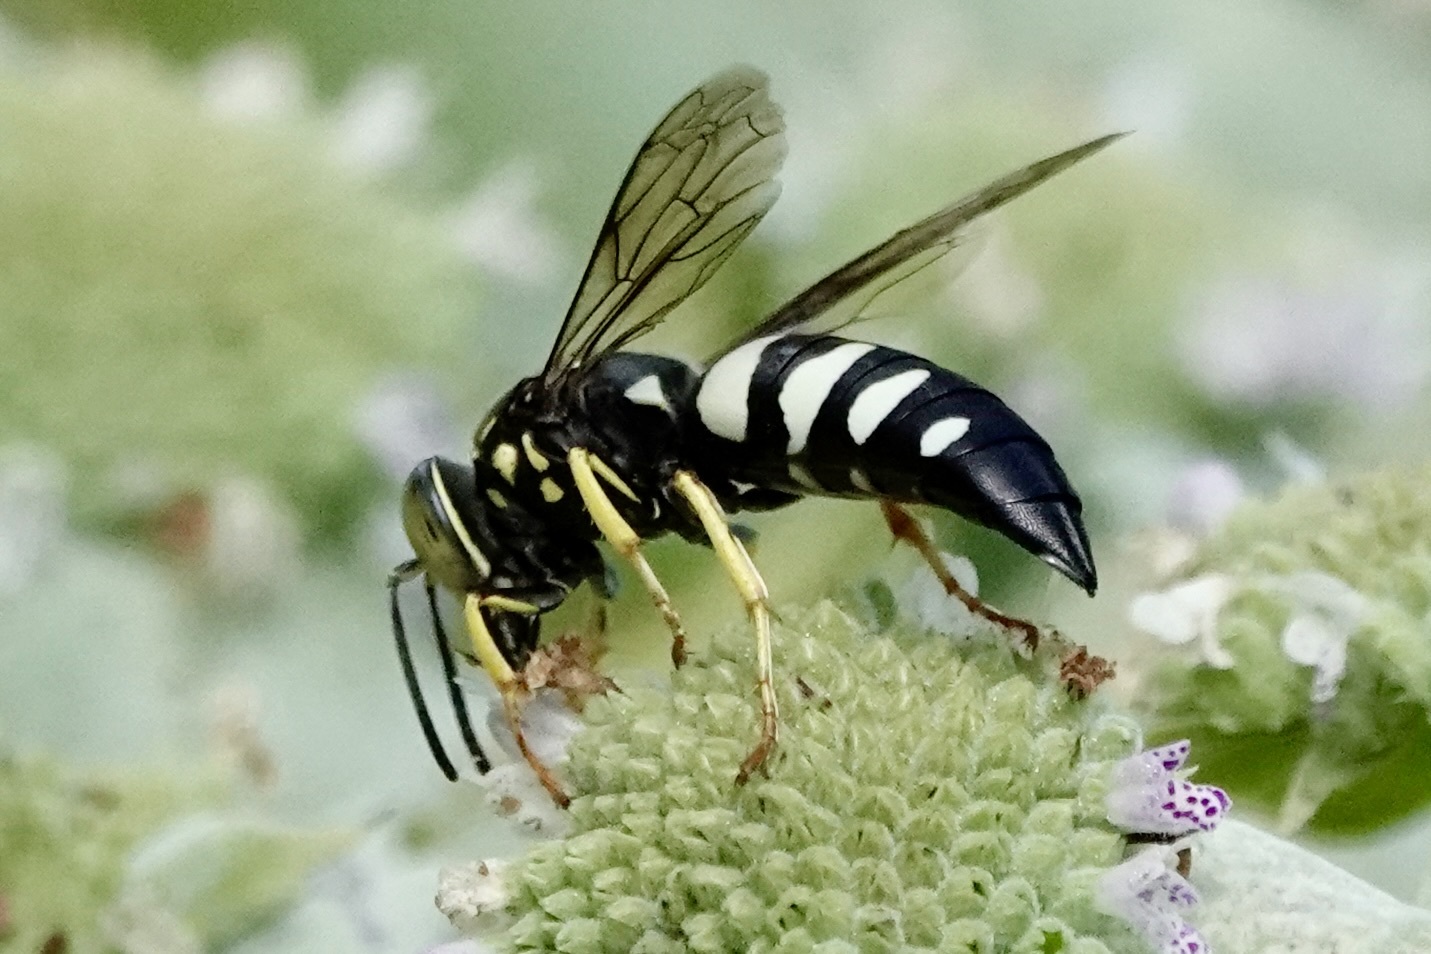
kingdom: Animalia
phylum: Arthropoda
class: Insecta
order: Hymenoptera
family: Crabronidae
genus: Bicyrtes
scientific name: Bicyrtes quadrifasciatus
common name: Four-banded stink bug hunter wasp
